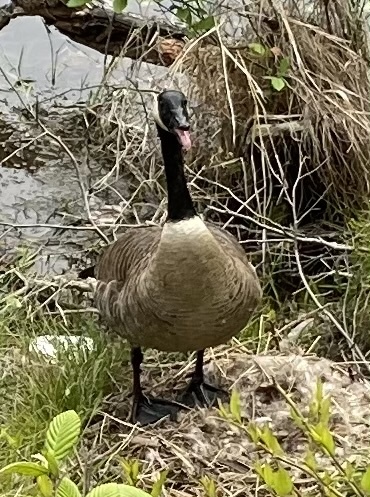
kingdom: Animalia
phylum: Chordata
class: Aves
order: Anseriformes
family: Anatidae
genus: Branta
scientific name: Branta canadensis
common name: Canada goose
